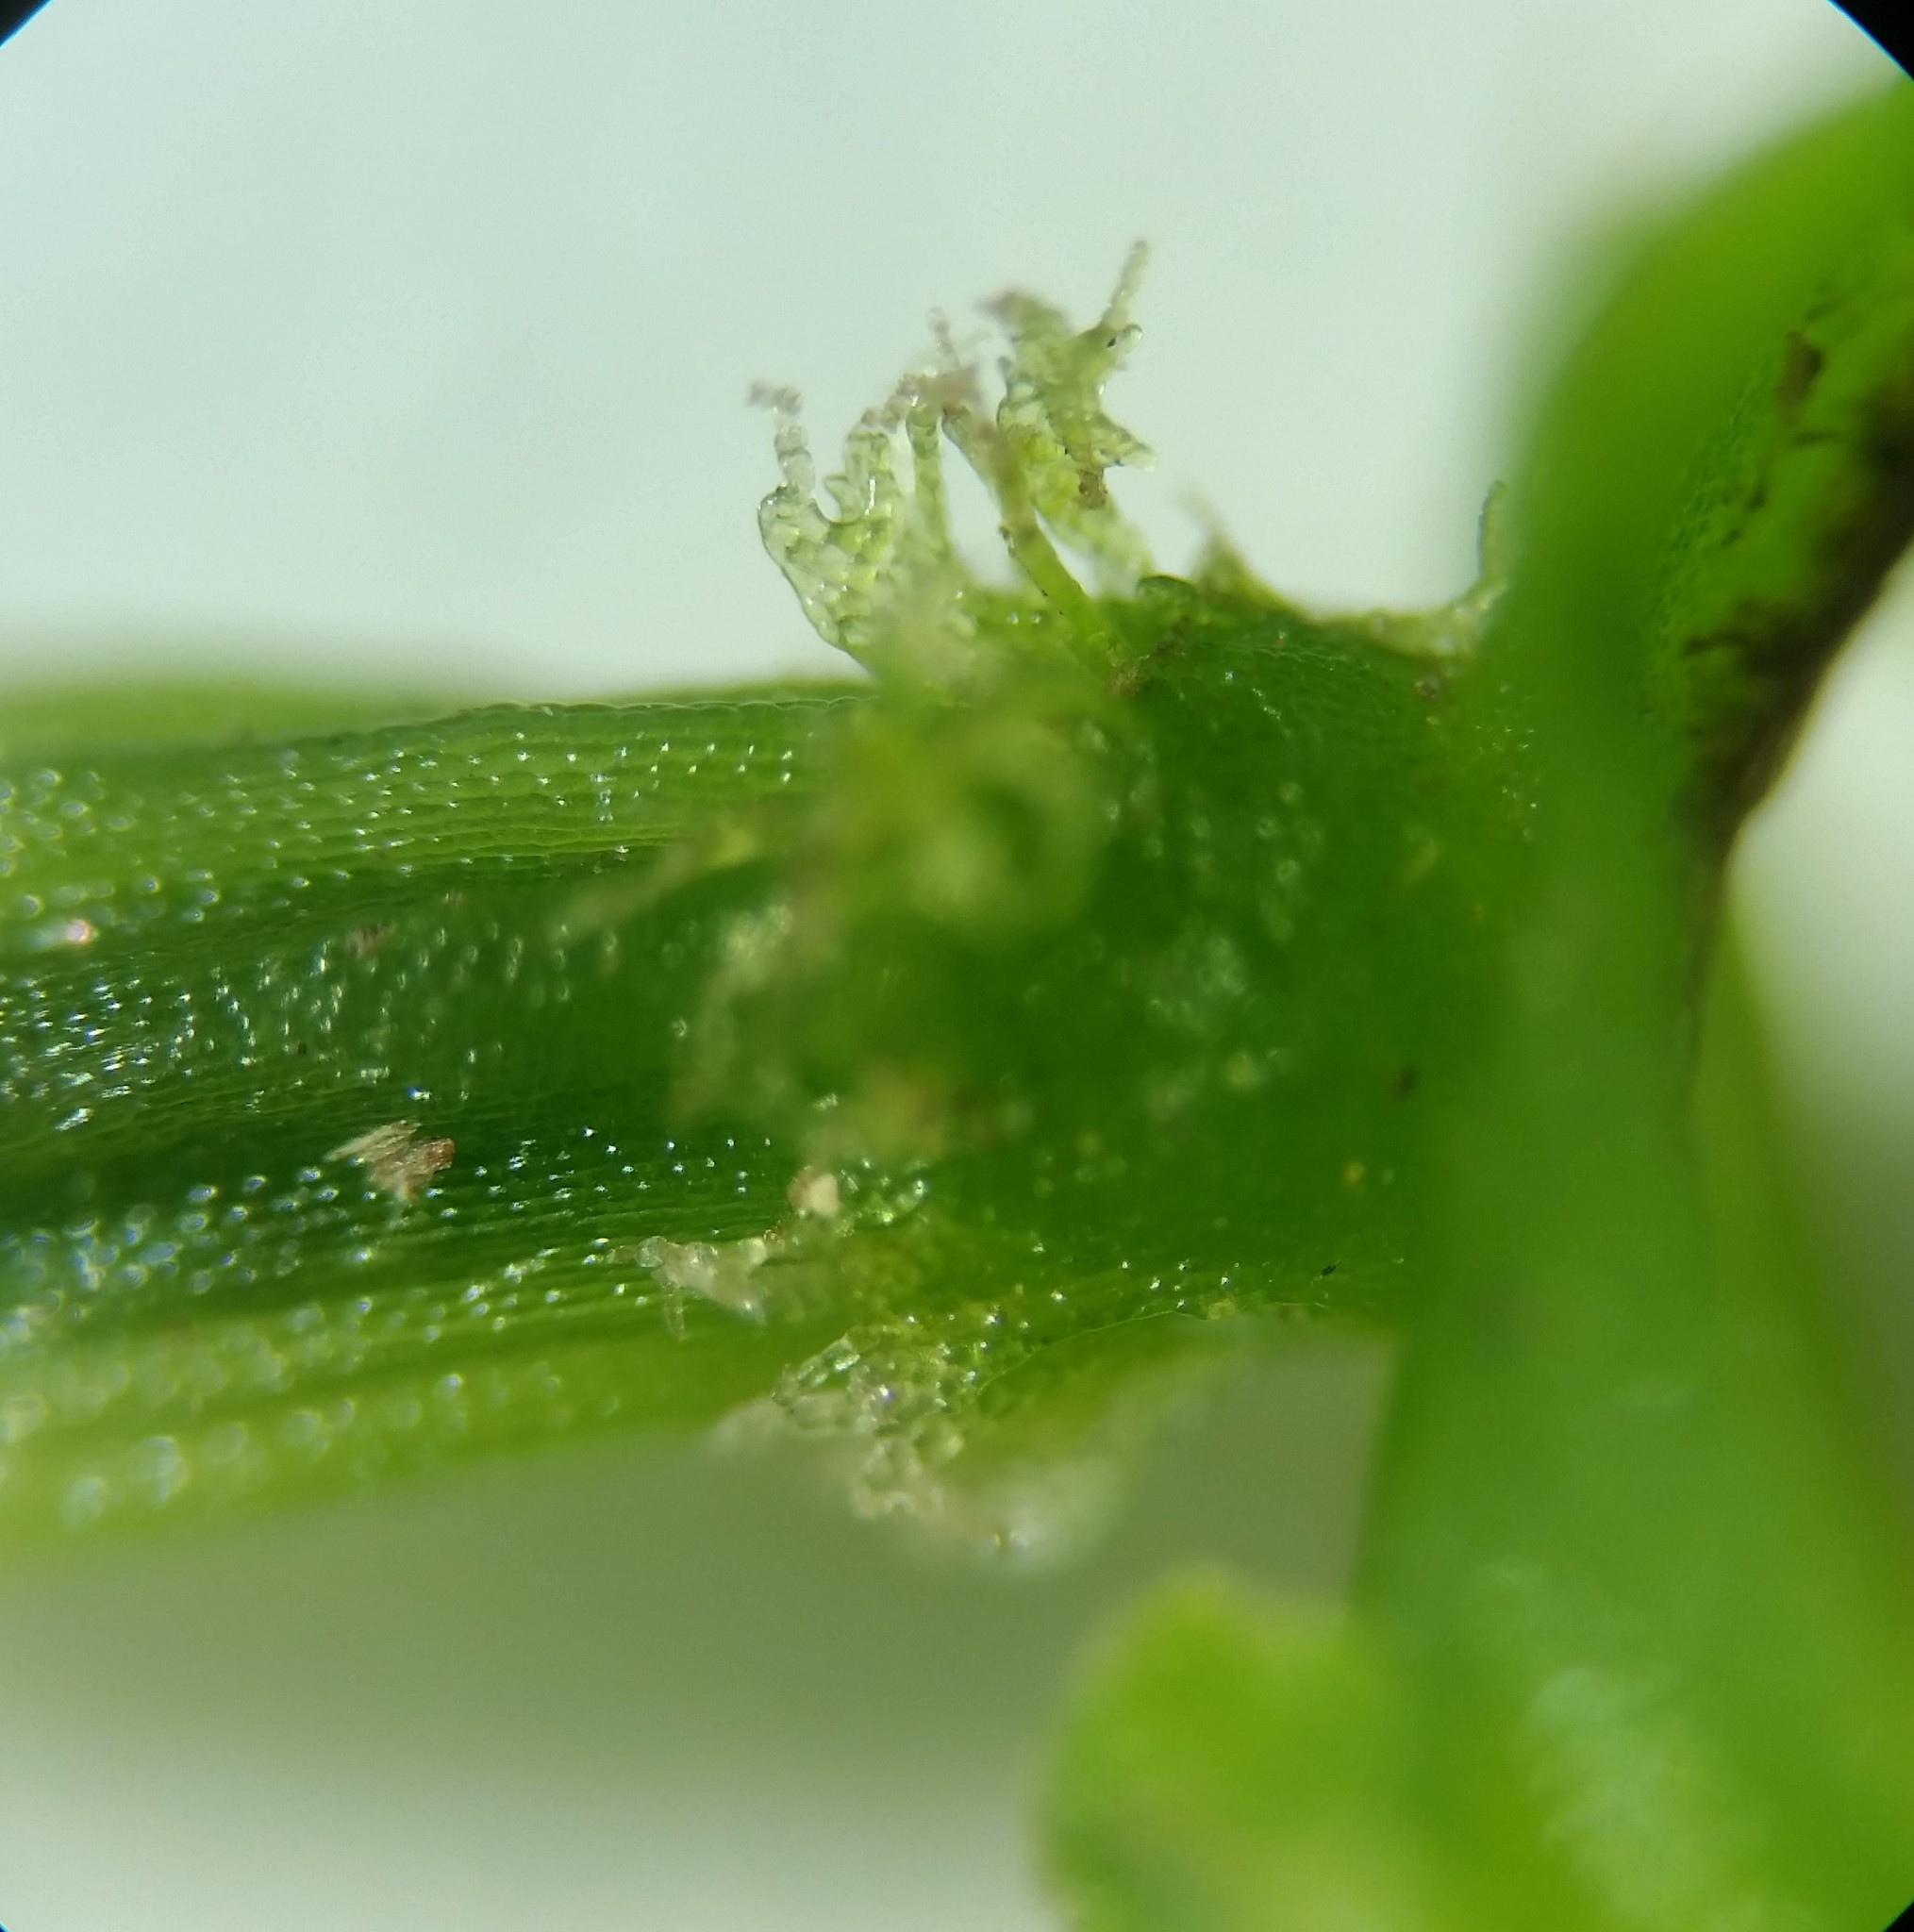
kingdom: Plantae
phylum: Marchantiophyta
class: Jungermanniopsida
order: Pallaviciniales
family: Pallaviciniaceae
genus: Pallavicinia
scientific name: Pallavicinia lyellii
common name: Veilwort
